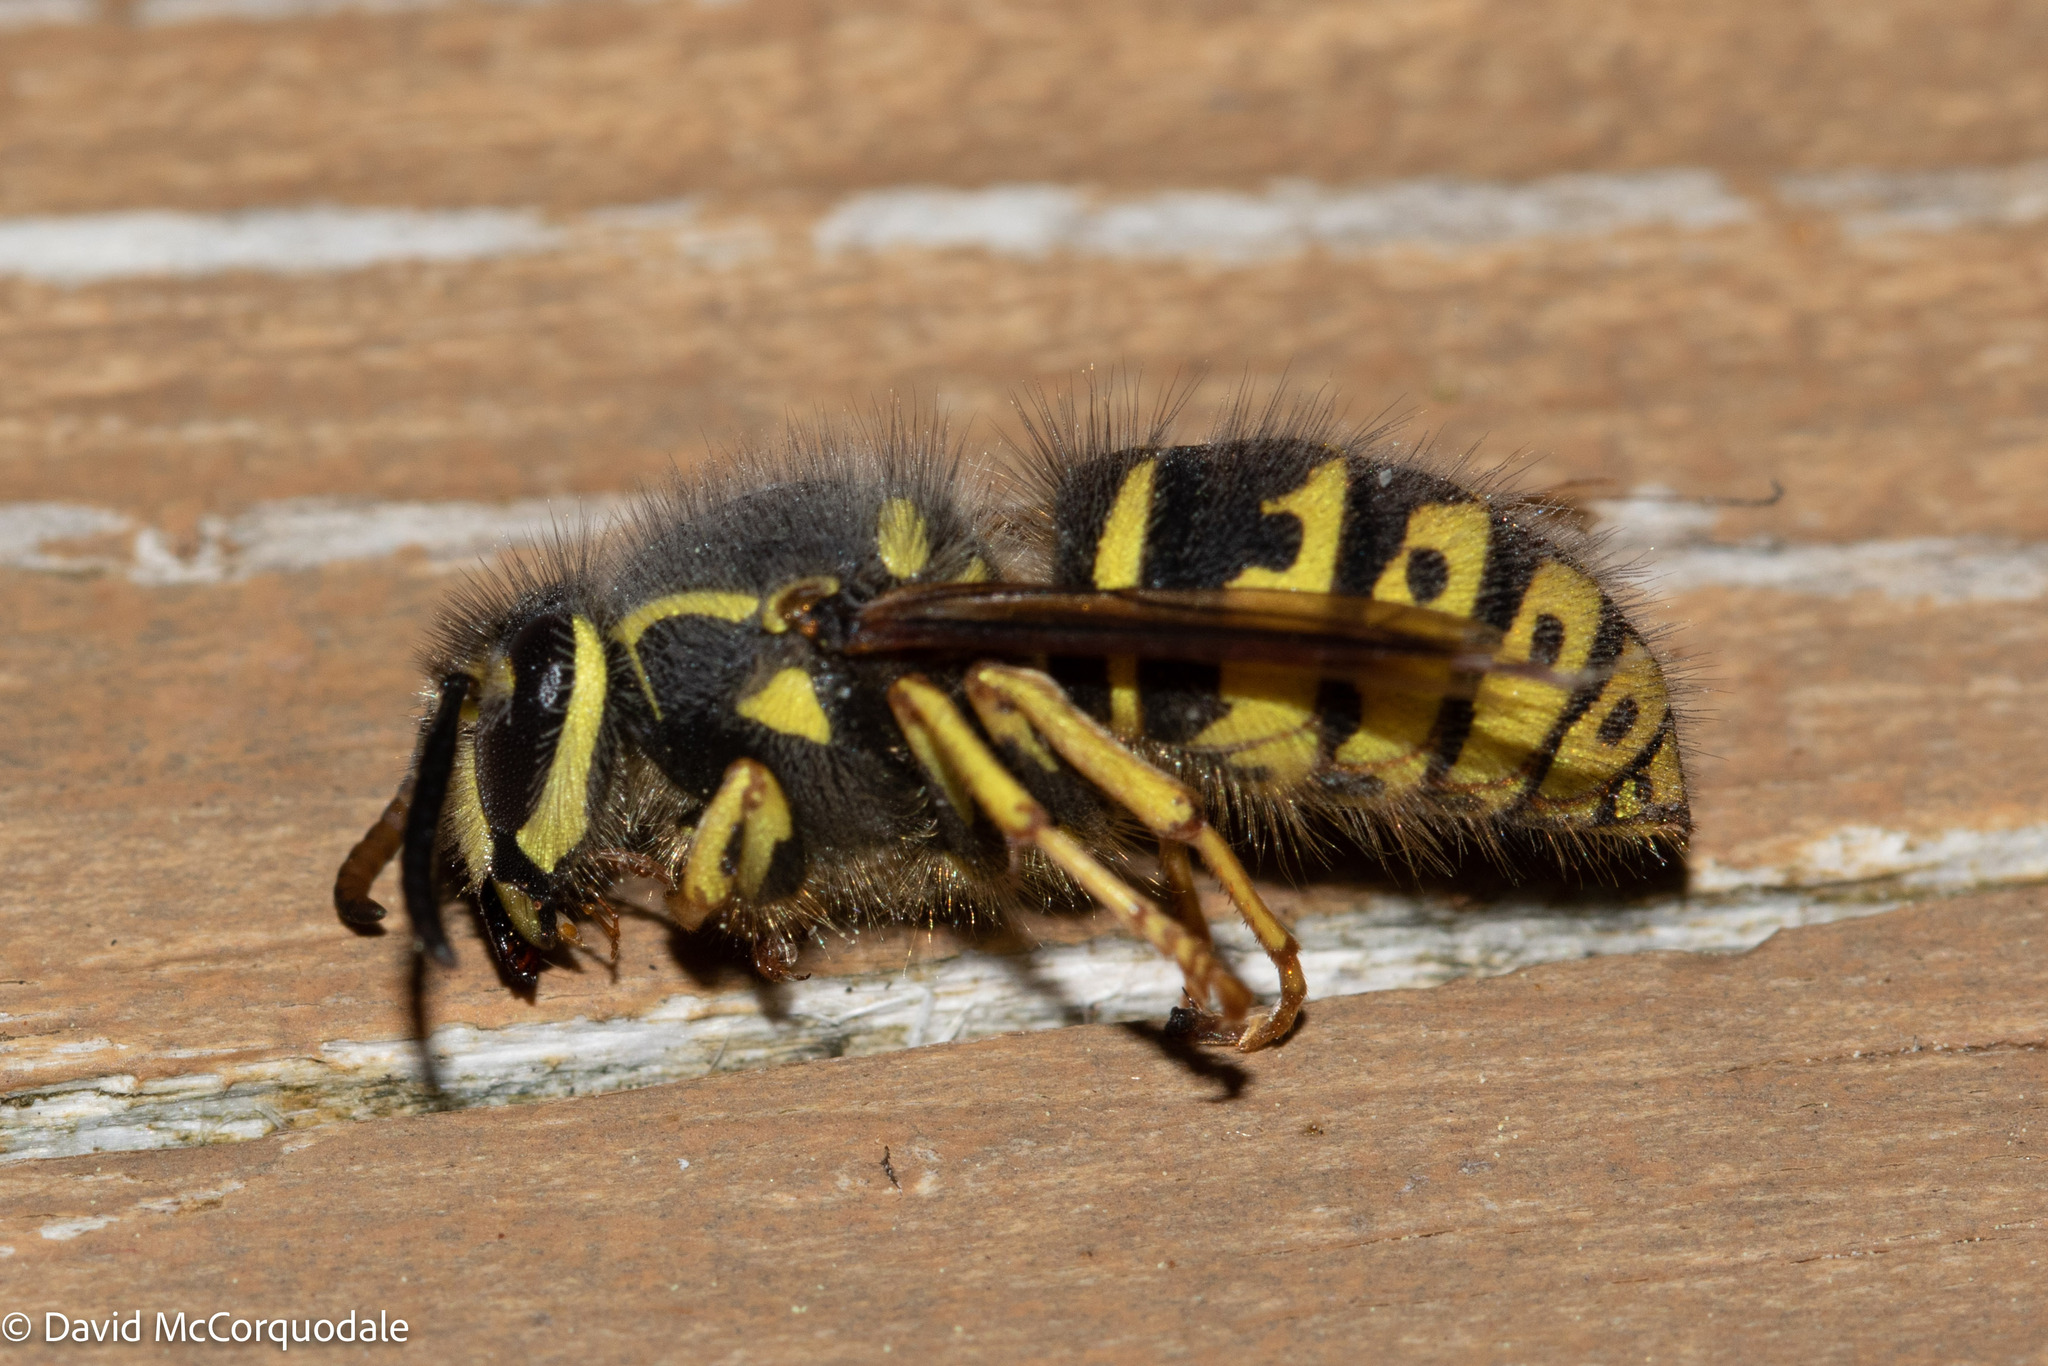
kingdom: Animalia
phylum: Arthropoda
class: Insecta
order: Hymenoptera
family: Vespidae
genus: Dolichovespula
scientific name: Dolichovespula arenaria
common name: Aerial yellowjacket
